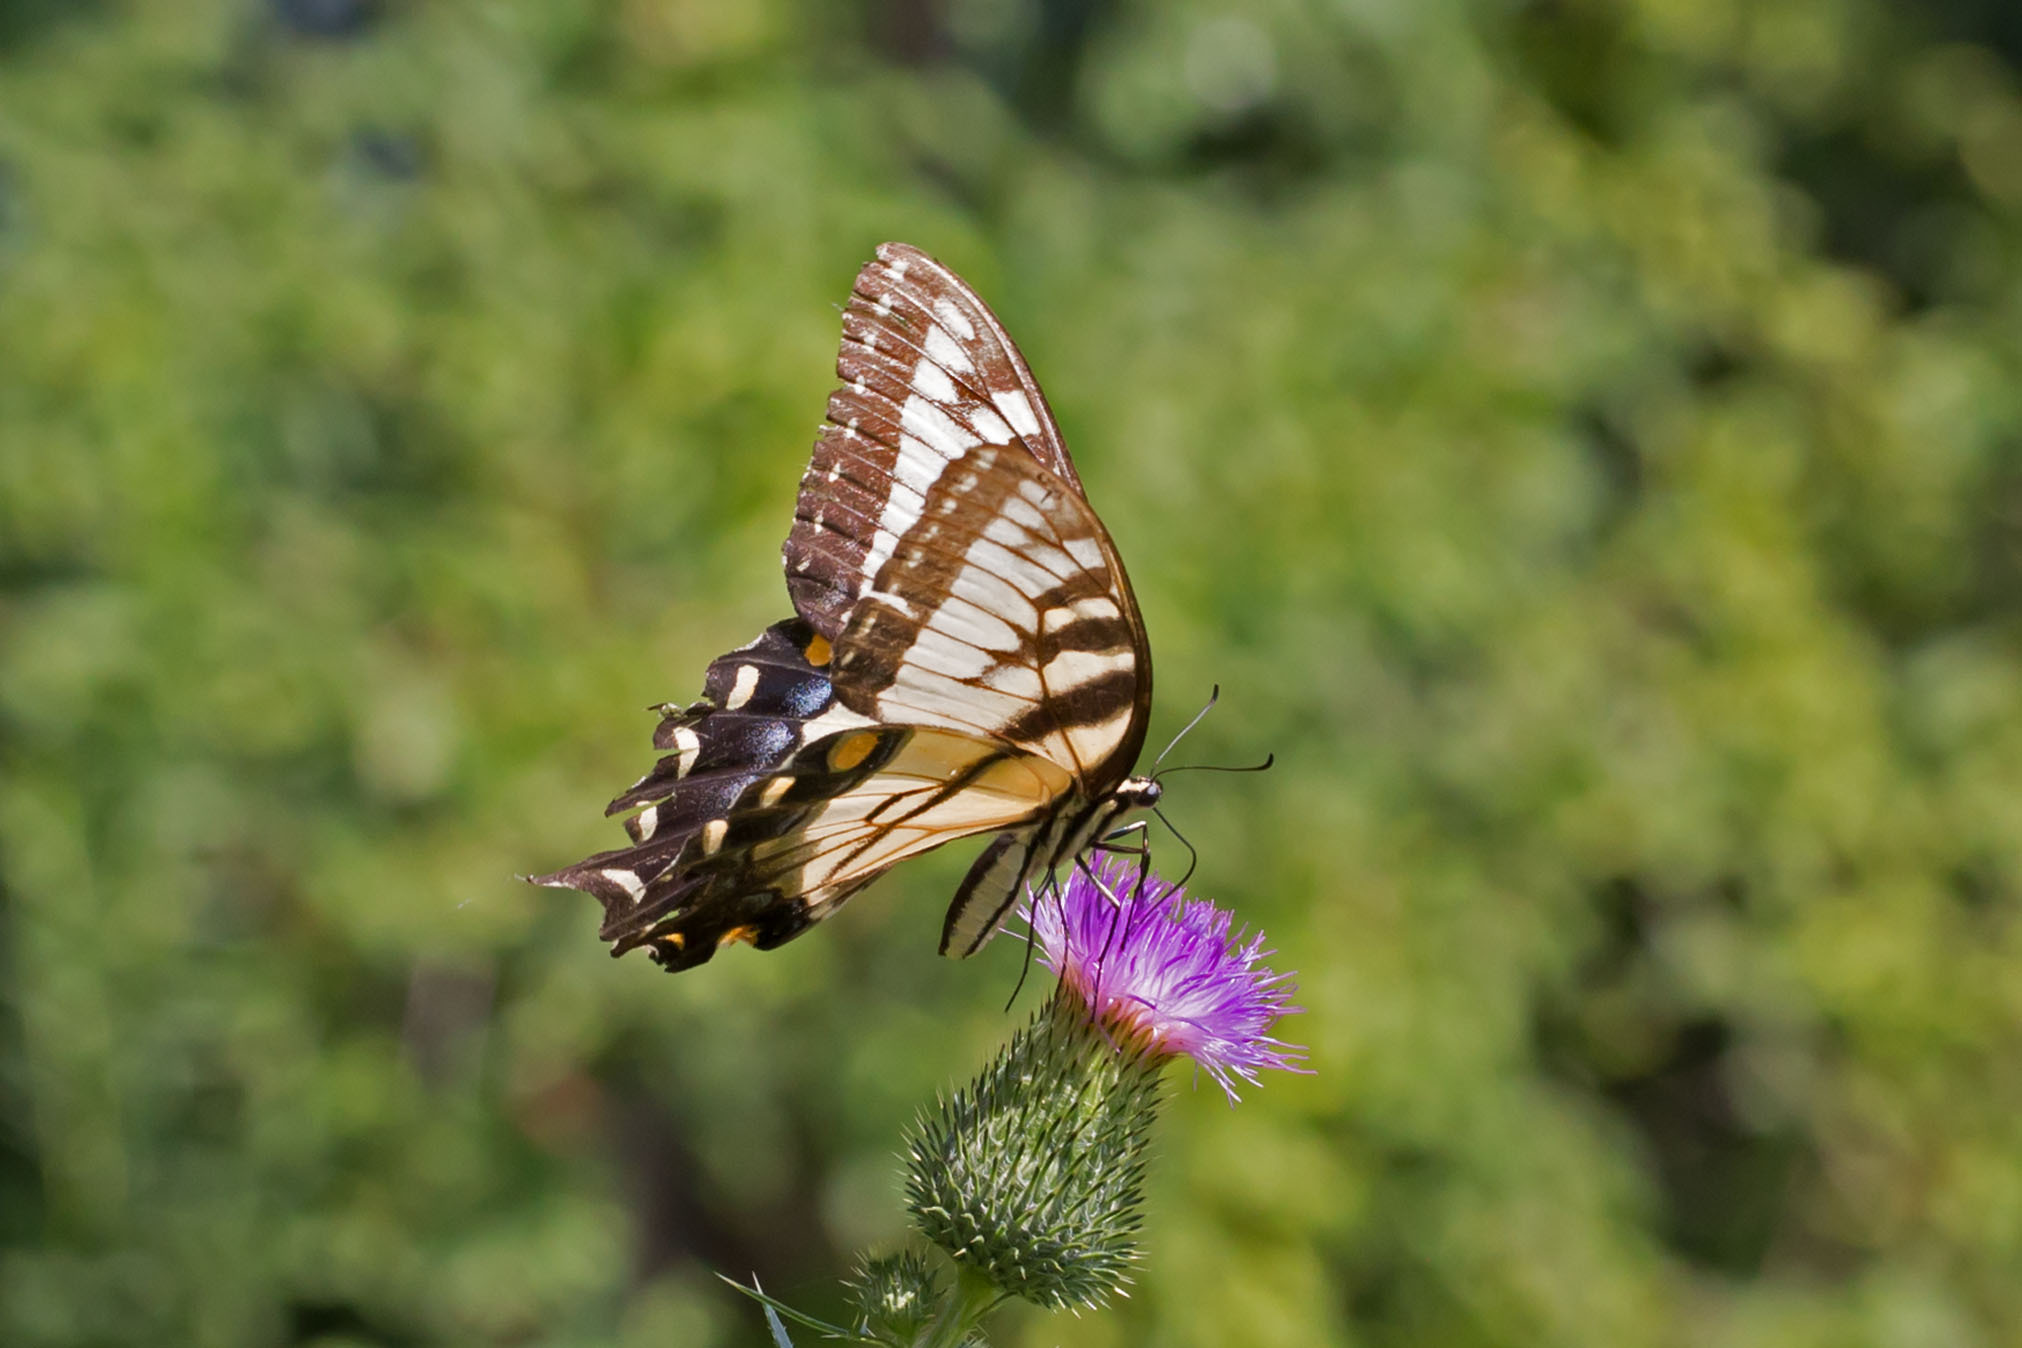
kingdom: Animalia
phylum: Arthropoda
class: Insecta
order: Lepidoptera
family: Papilionidae
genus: Papilio
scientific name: Papilio glaucus
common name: Tiger swallowtail
